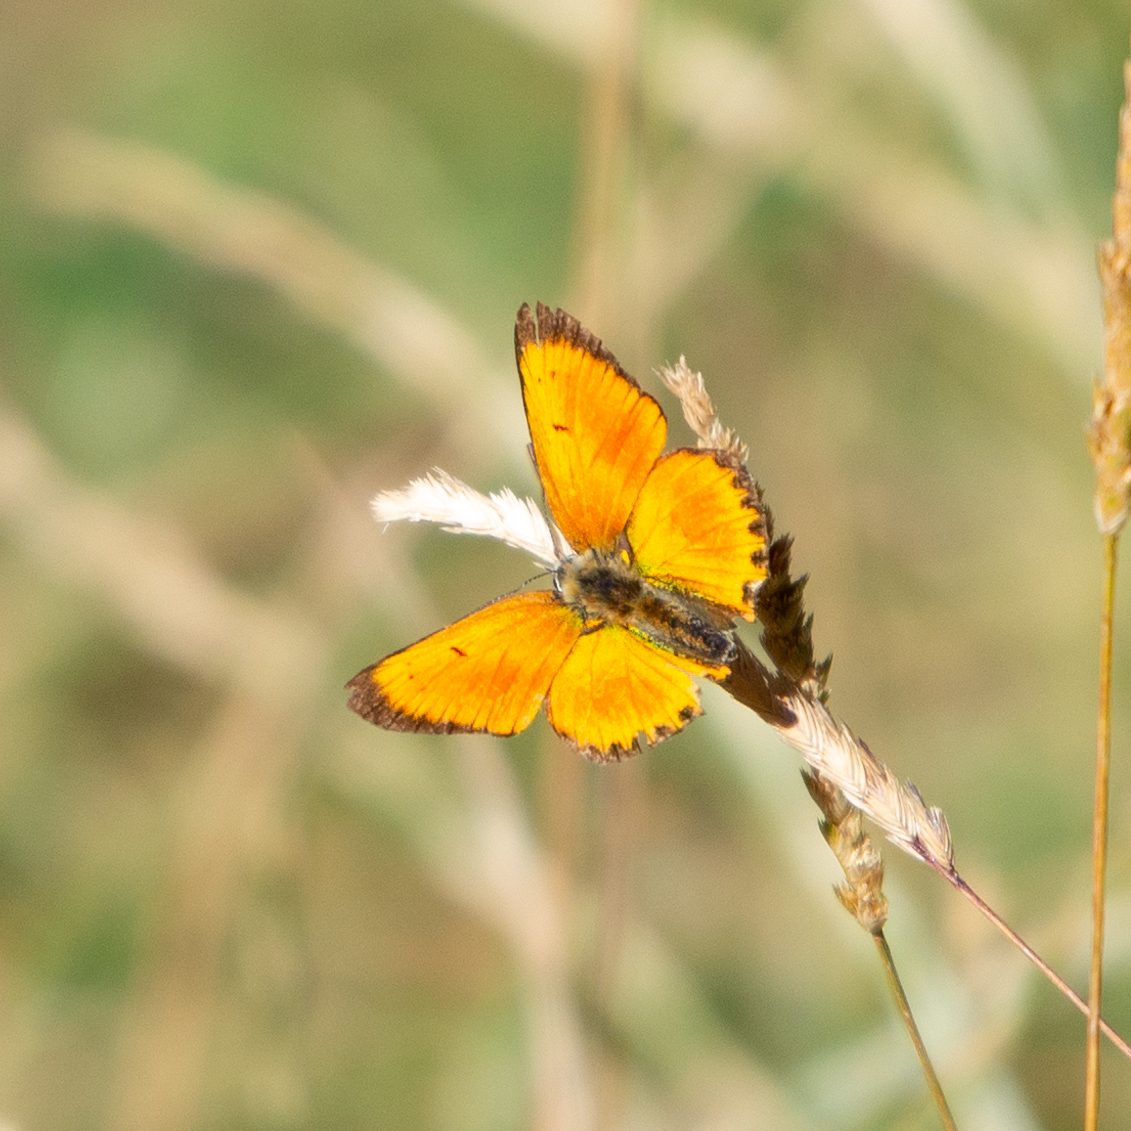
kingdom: Animalia
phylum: Arthropoda
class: Insecta
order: Lepidoptera
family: Lycaenidae
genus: Lycaena
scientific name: Lycaena virgaureae
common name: Scarce copper
